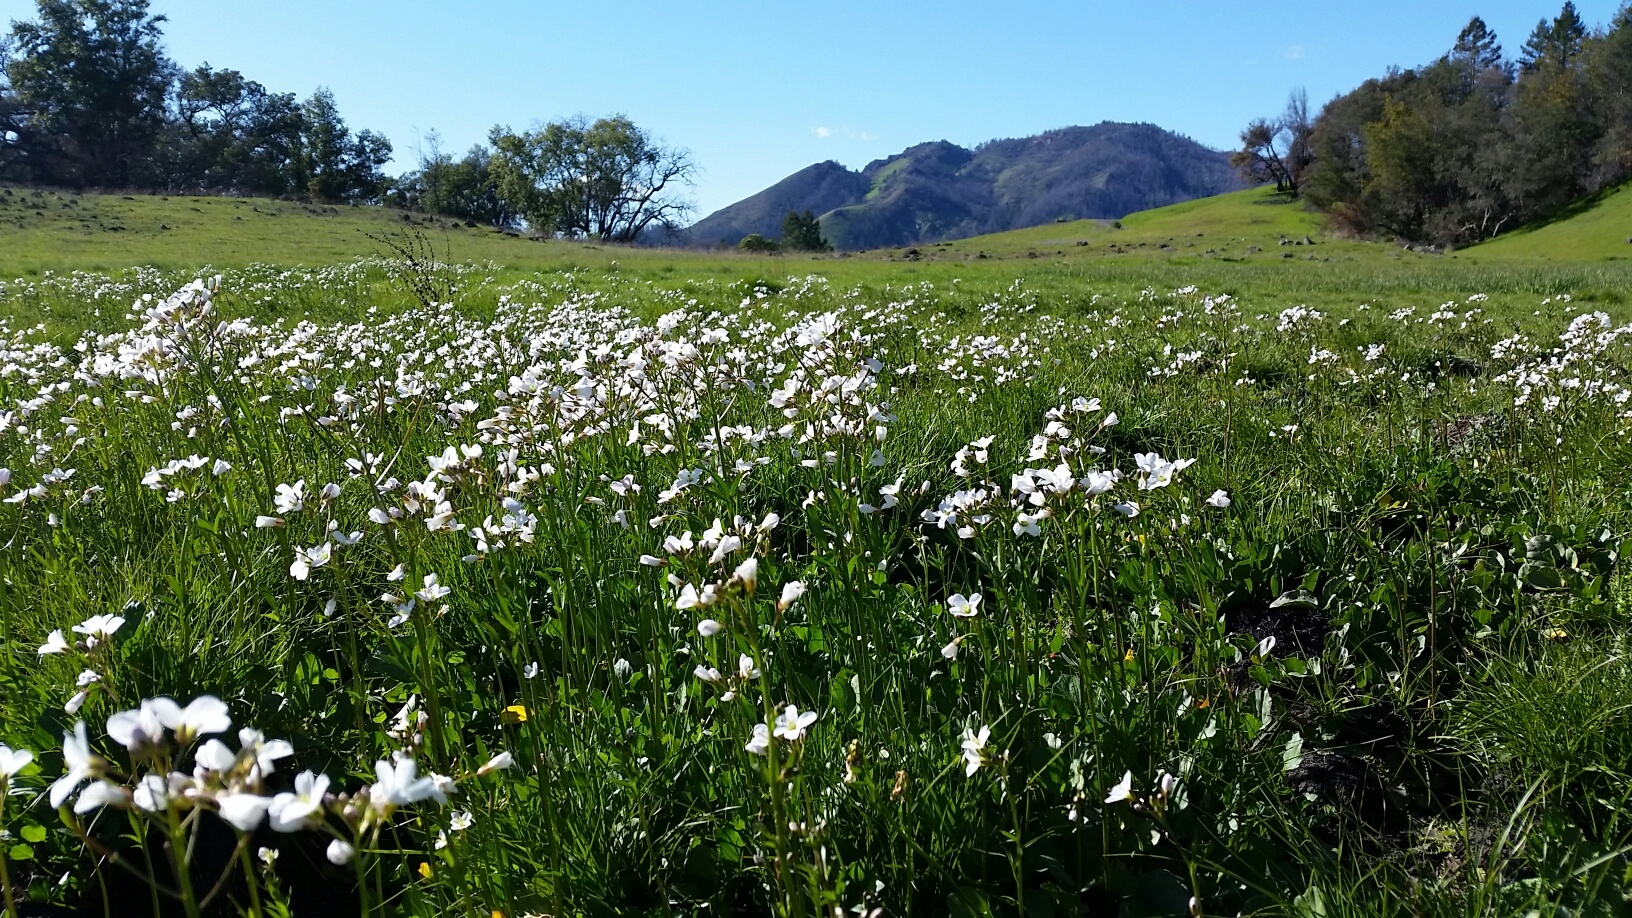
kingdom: Plantae
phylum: Tracheophyta
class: Magnoliopsida
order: Brassicales
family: Brassicaceae
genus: Cardamine
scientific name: Cardamine californica
